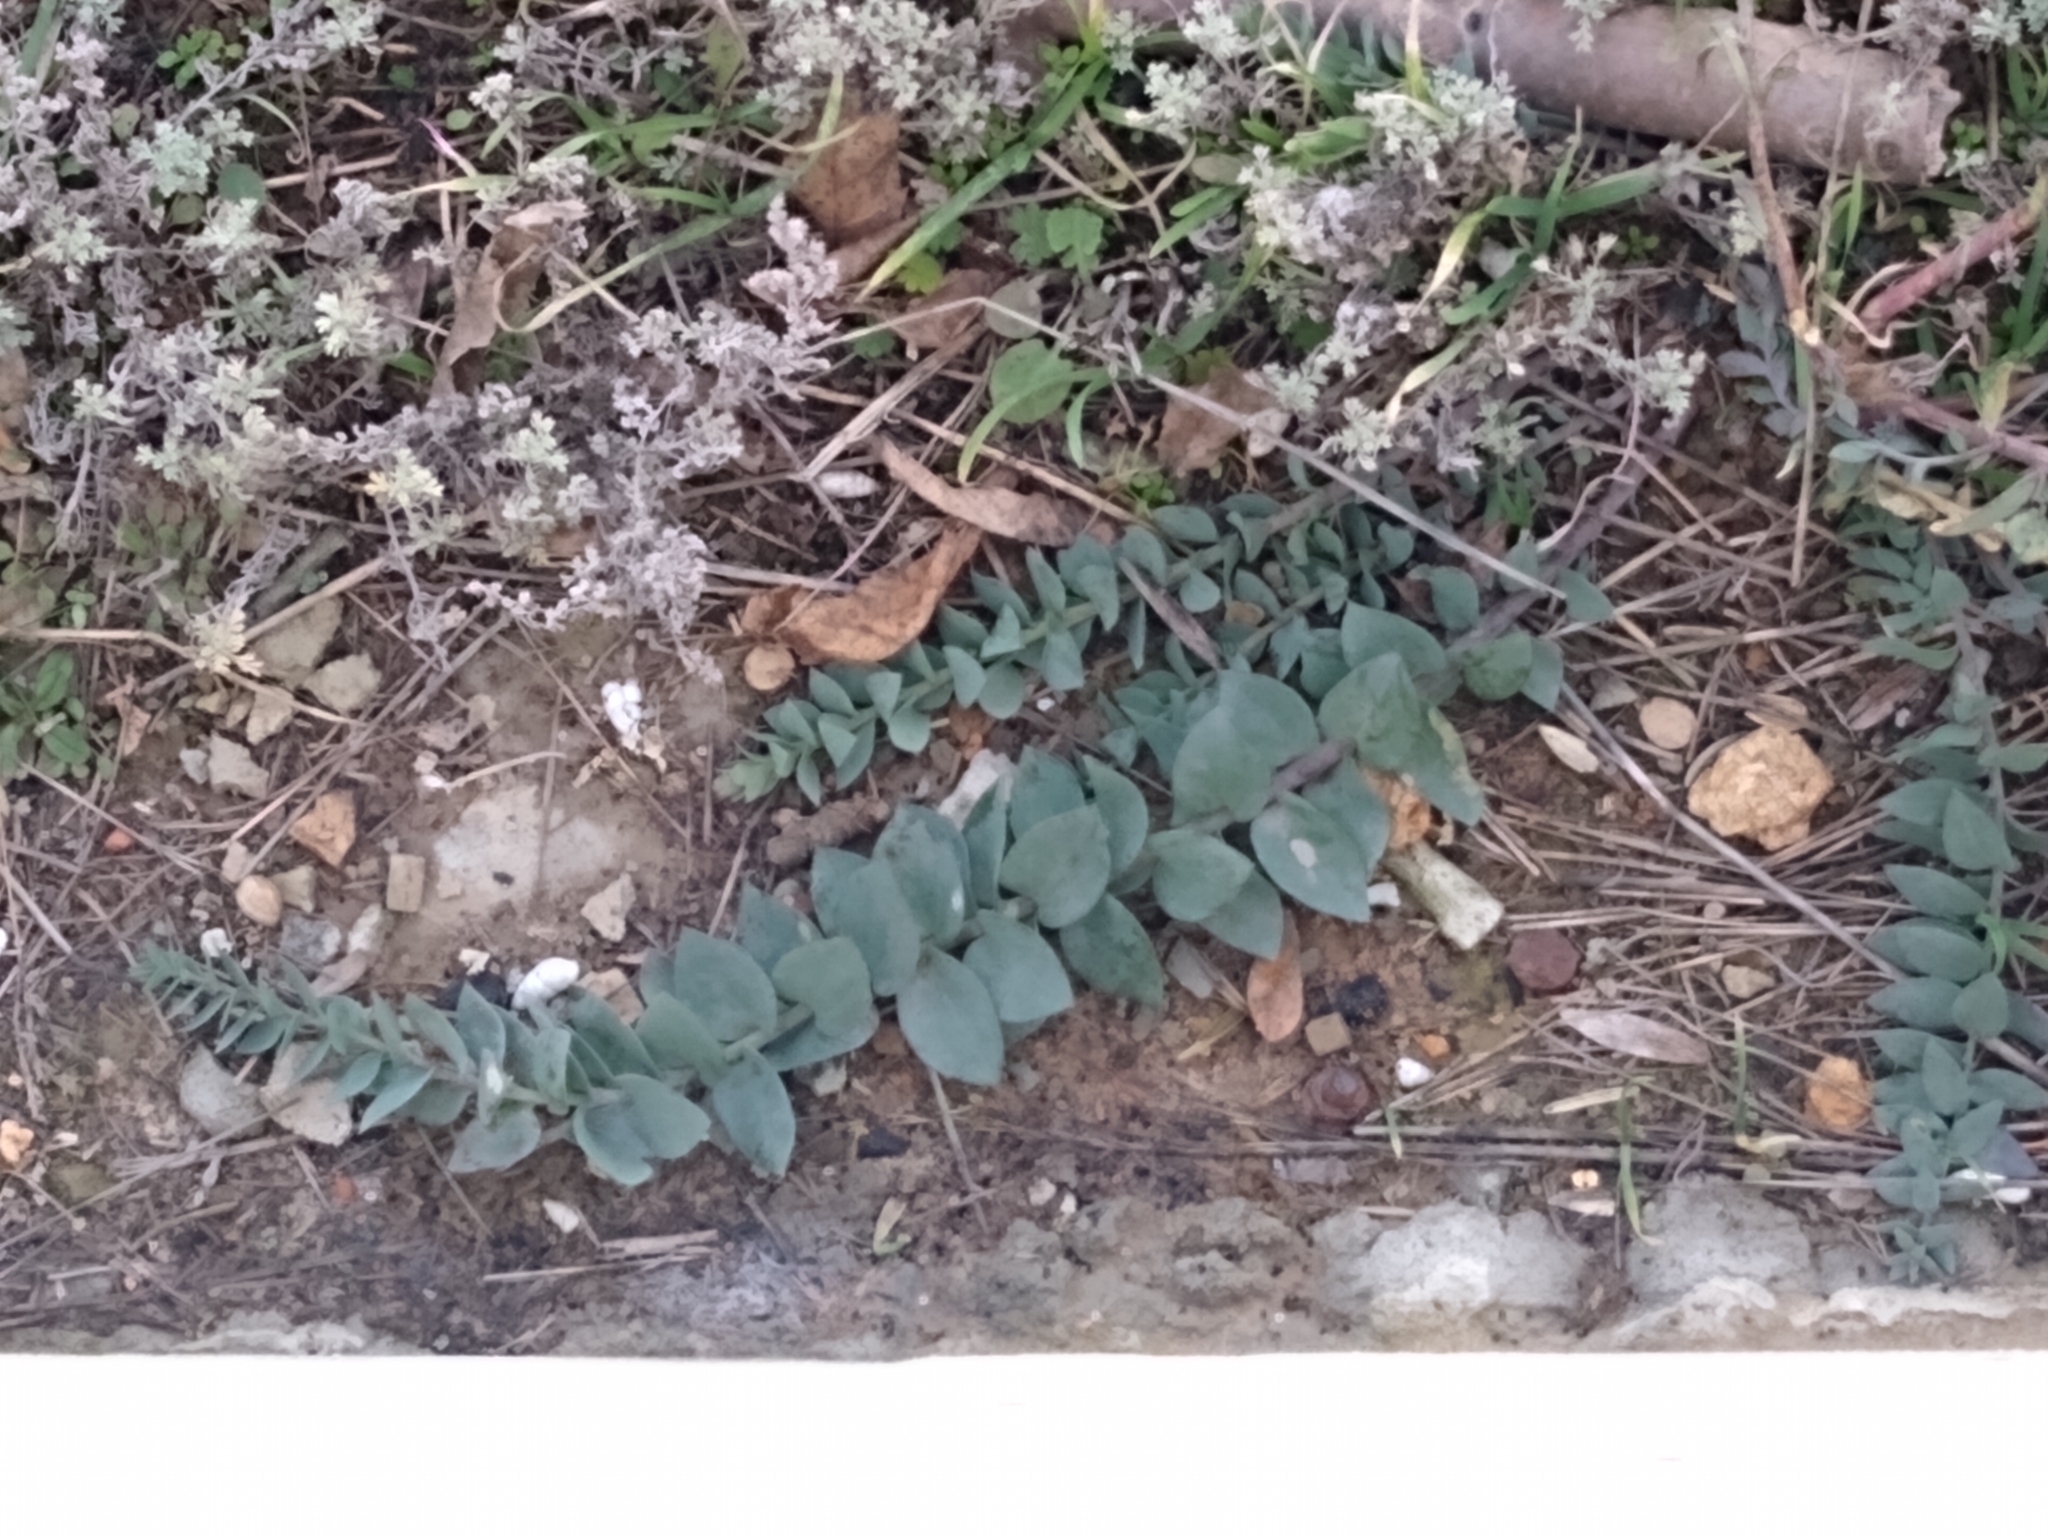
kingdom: Plantae
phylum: Tracheophyta
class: Magnoliopsida
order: Lamiales
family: Plantaginaceae
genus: Linaria
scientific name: Linaria genistifolia
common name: Broomleaf toadflax
